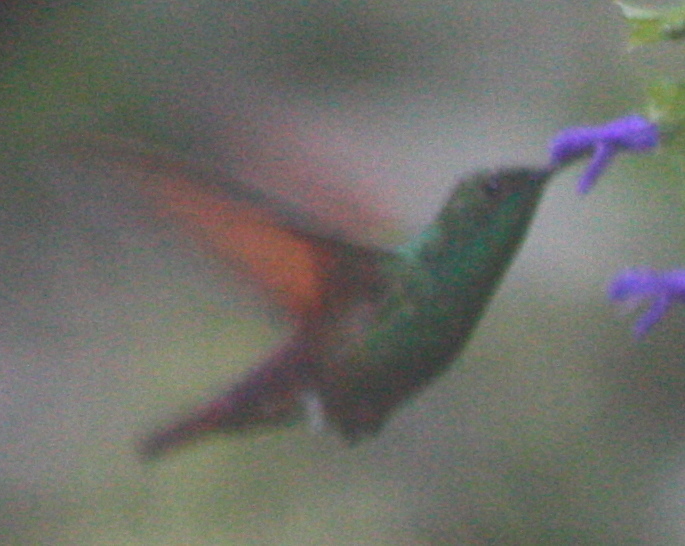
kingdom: Animalia
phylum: Chordata
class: Aves
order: Apodiformes
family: Trochilidae
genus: Saucerottia
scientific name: Saucerottia beryllina
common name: Berylline hummingbird
